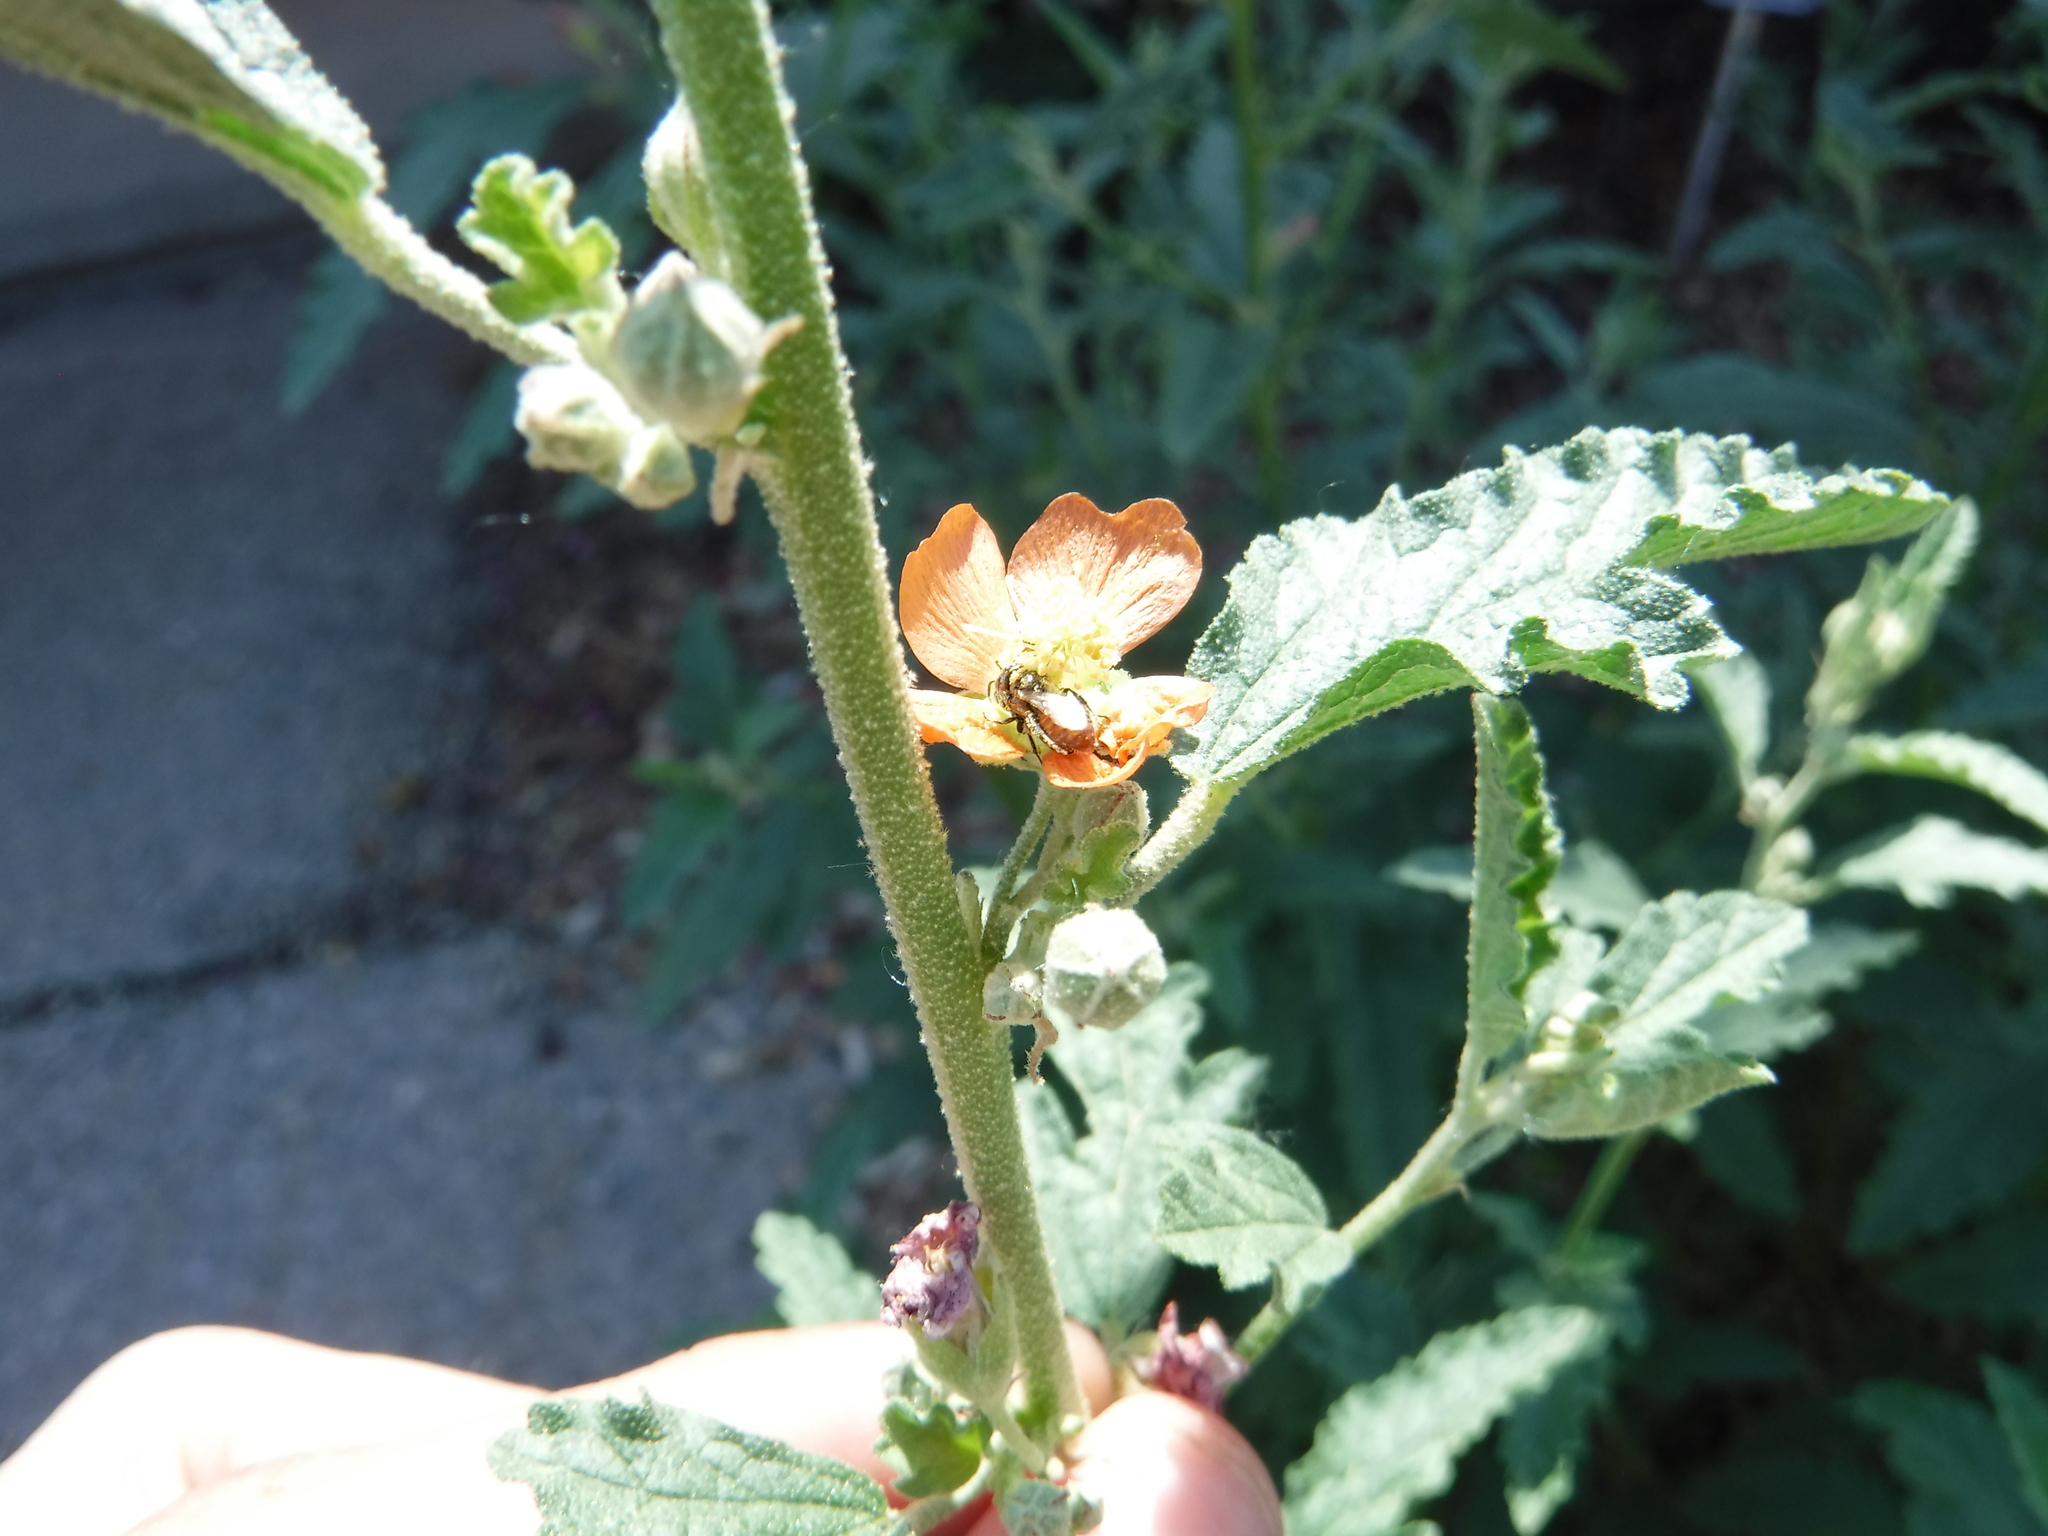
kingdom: Animalia
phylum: Arthropoda
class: Insecta
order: Hymenoptera
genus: Macroteropsis
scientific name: Macroteropsis
